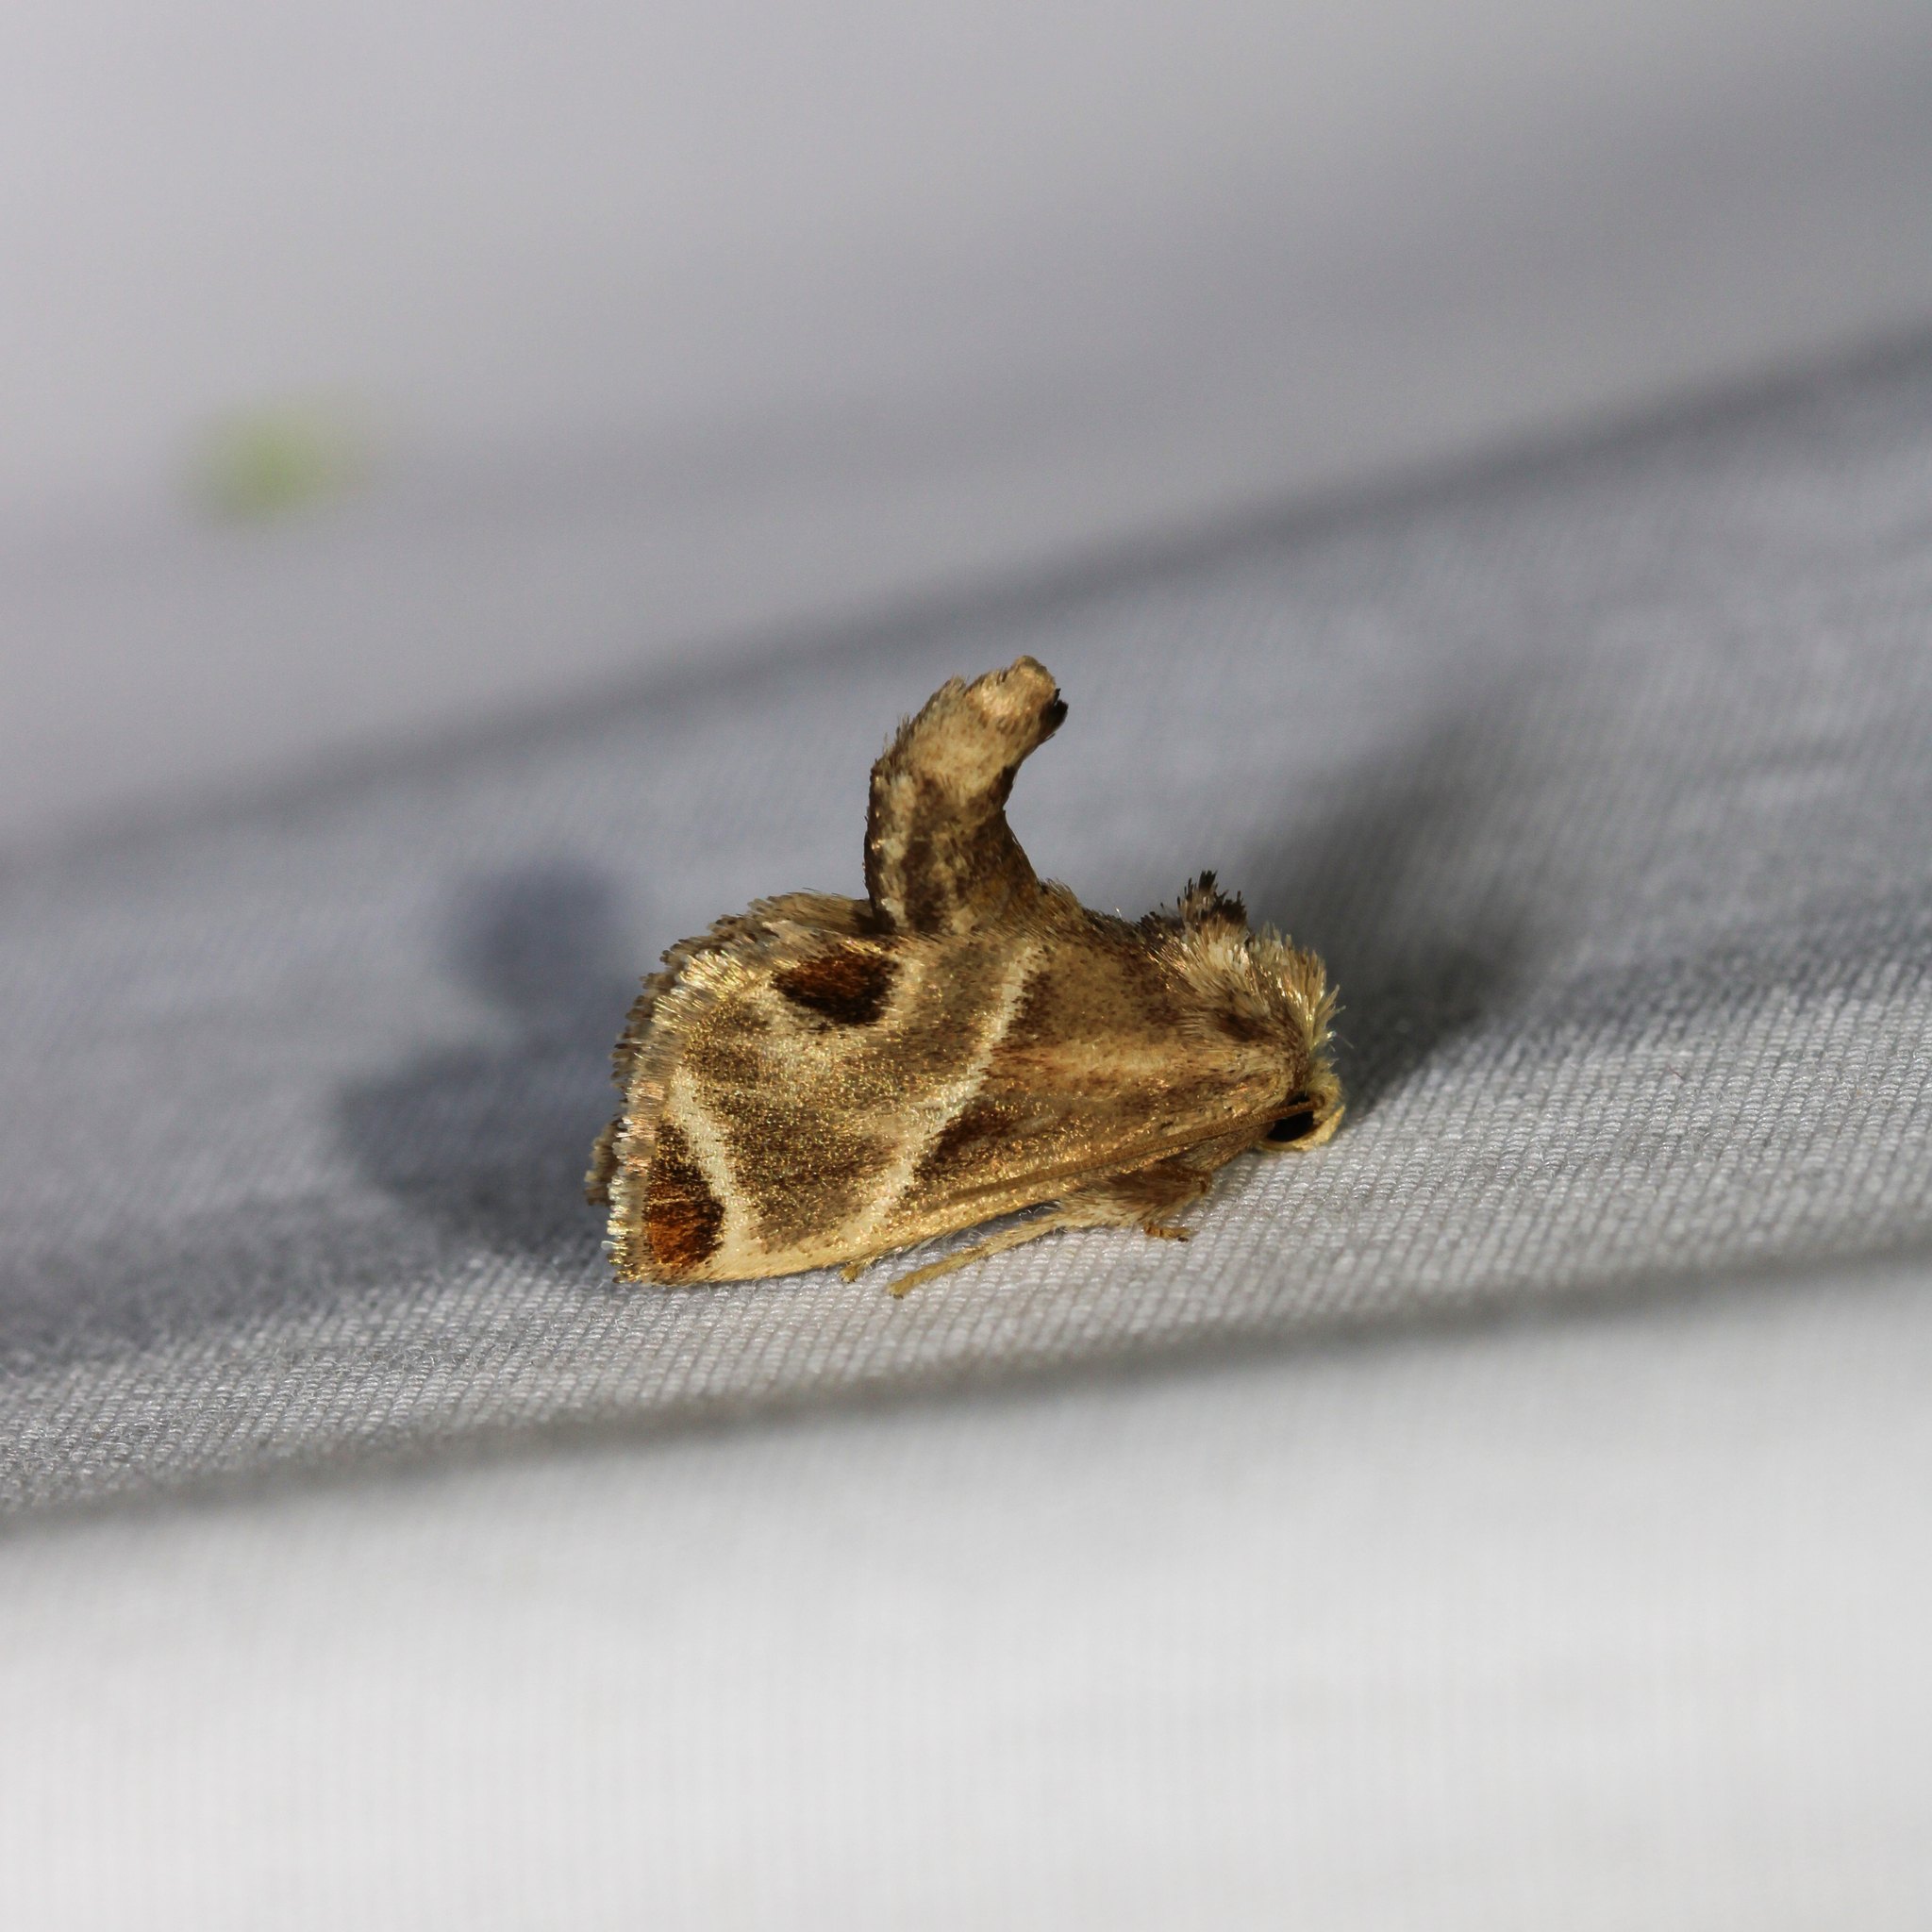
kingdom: Animalia
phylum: Arthropoda
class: Insecta
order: Lepidoptera
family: Limacodidae
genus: Apoda
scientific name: Apoda biguttata
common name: Shagreened slug moth
